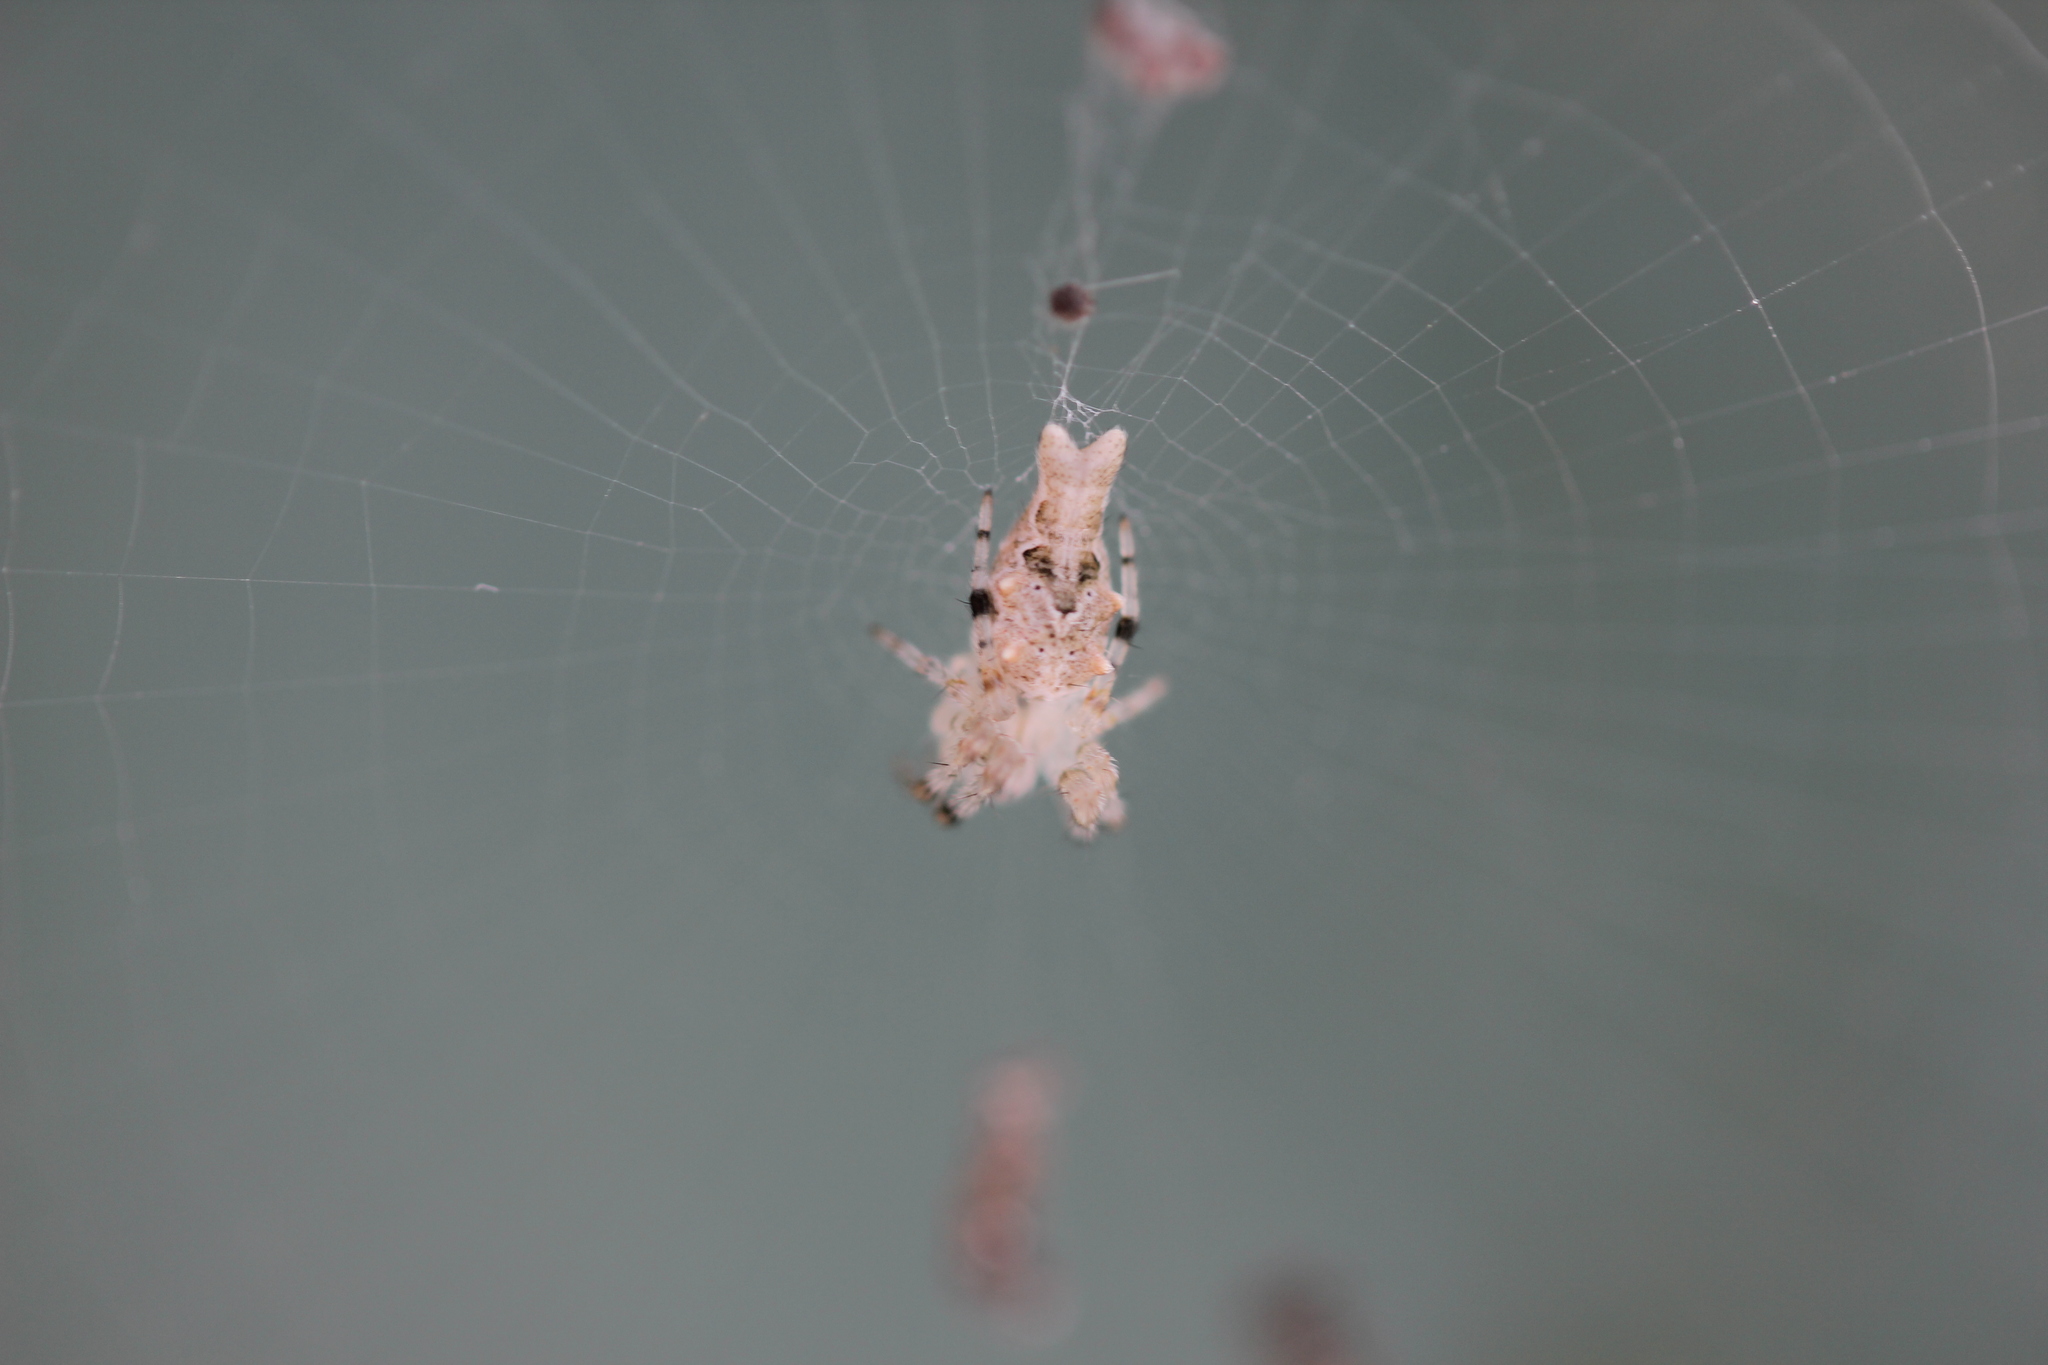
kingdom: Animalia
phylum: Arthropoda
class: Arachnida
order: Araneae
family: Araneidae
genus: Allocyclosa
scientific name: Allocyclosa bifurca
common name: Orb weavers
